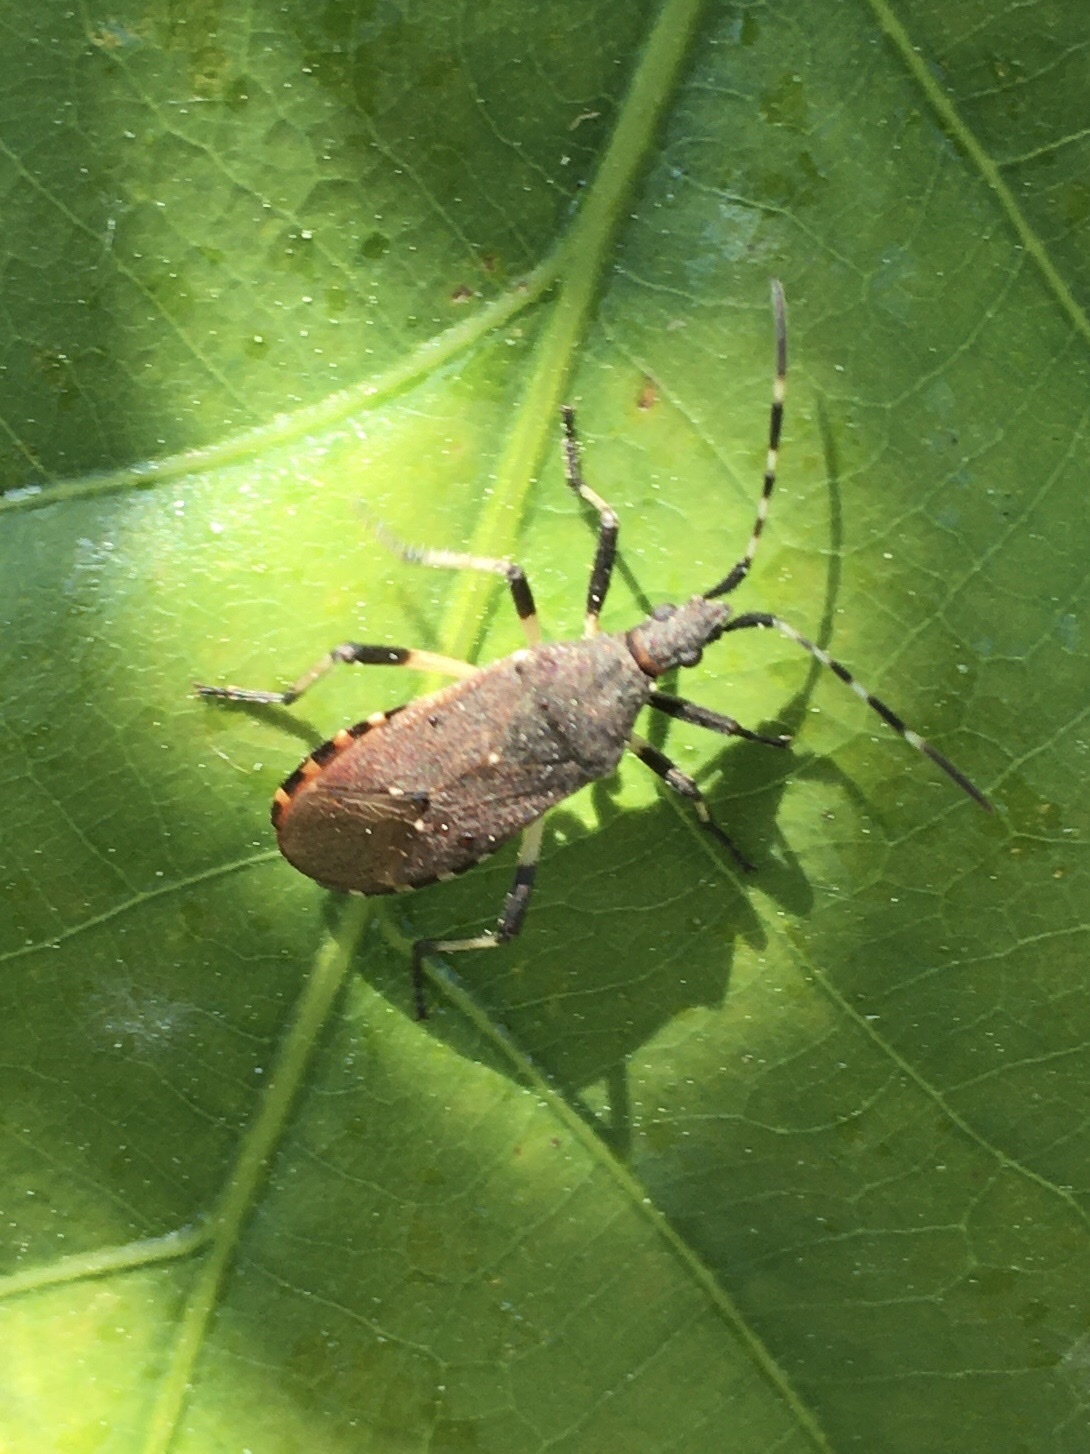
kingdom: Animalia
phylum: Arthropoda
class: Insecta
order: Hemiptera
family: Stenocephalidae
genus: Dicranocephalus
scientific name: Dicranocephalus agilis
